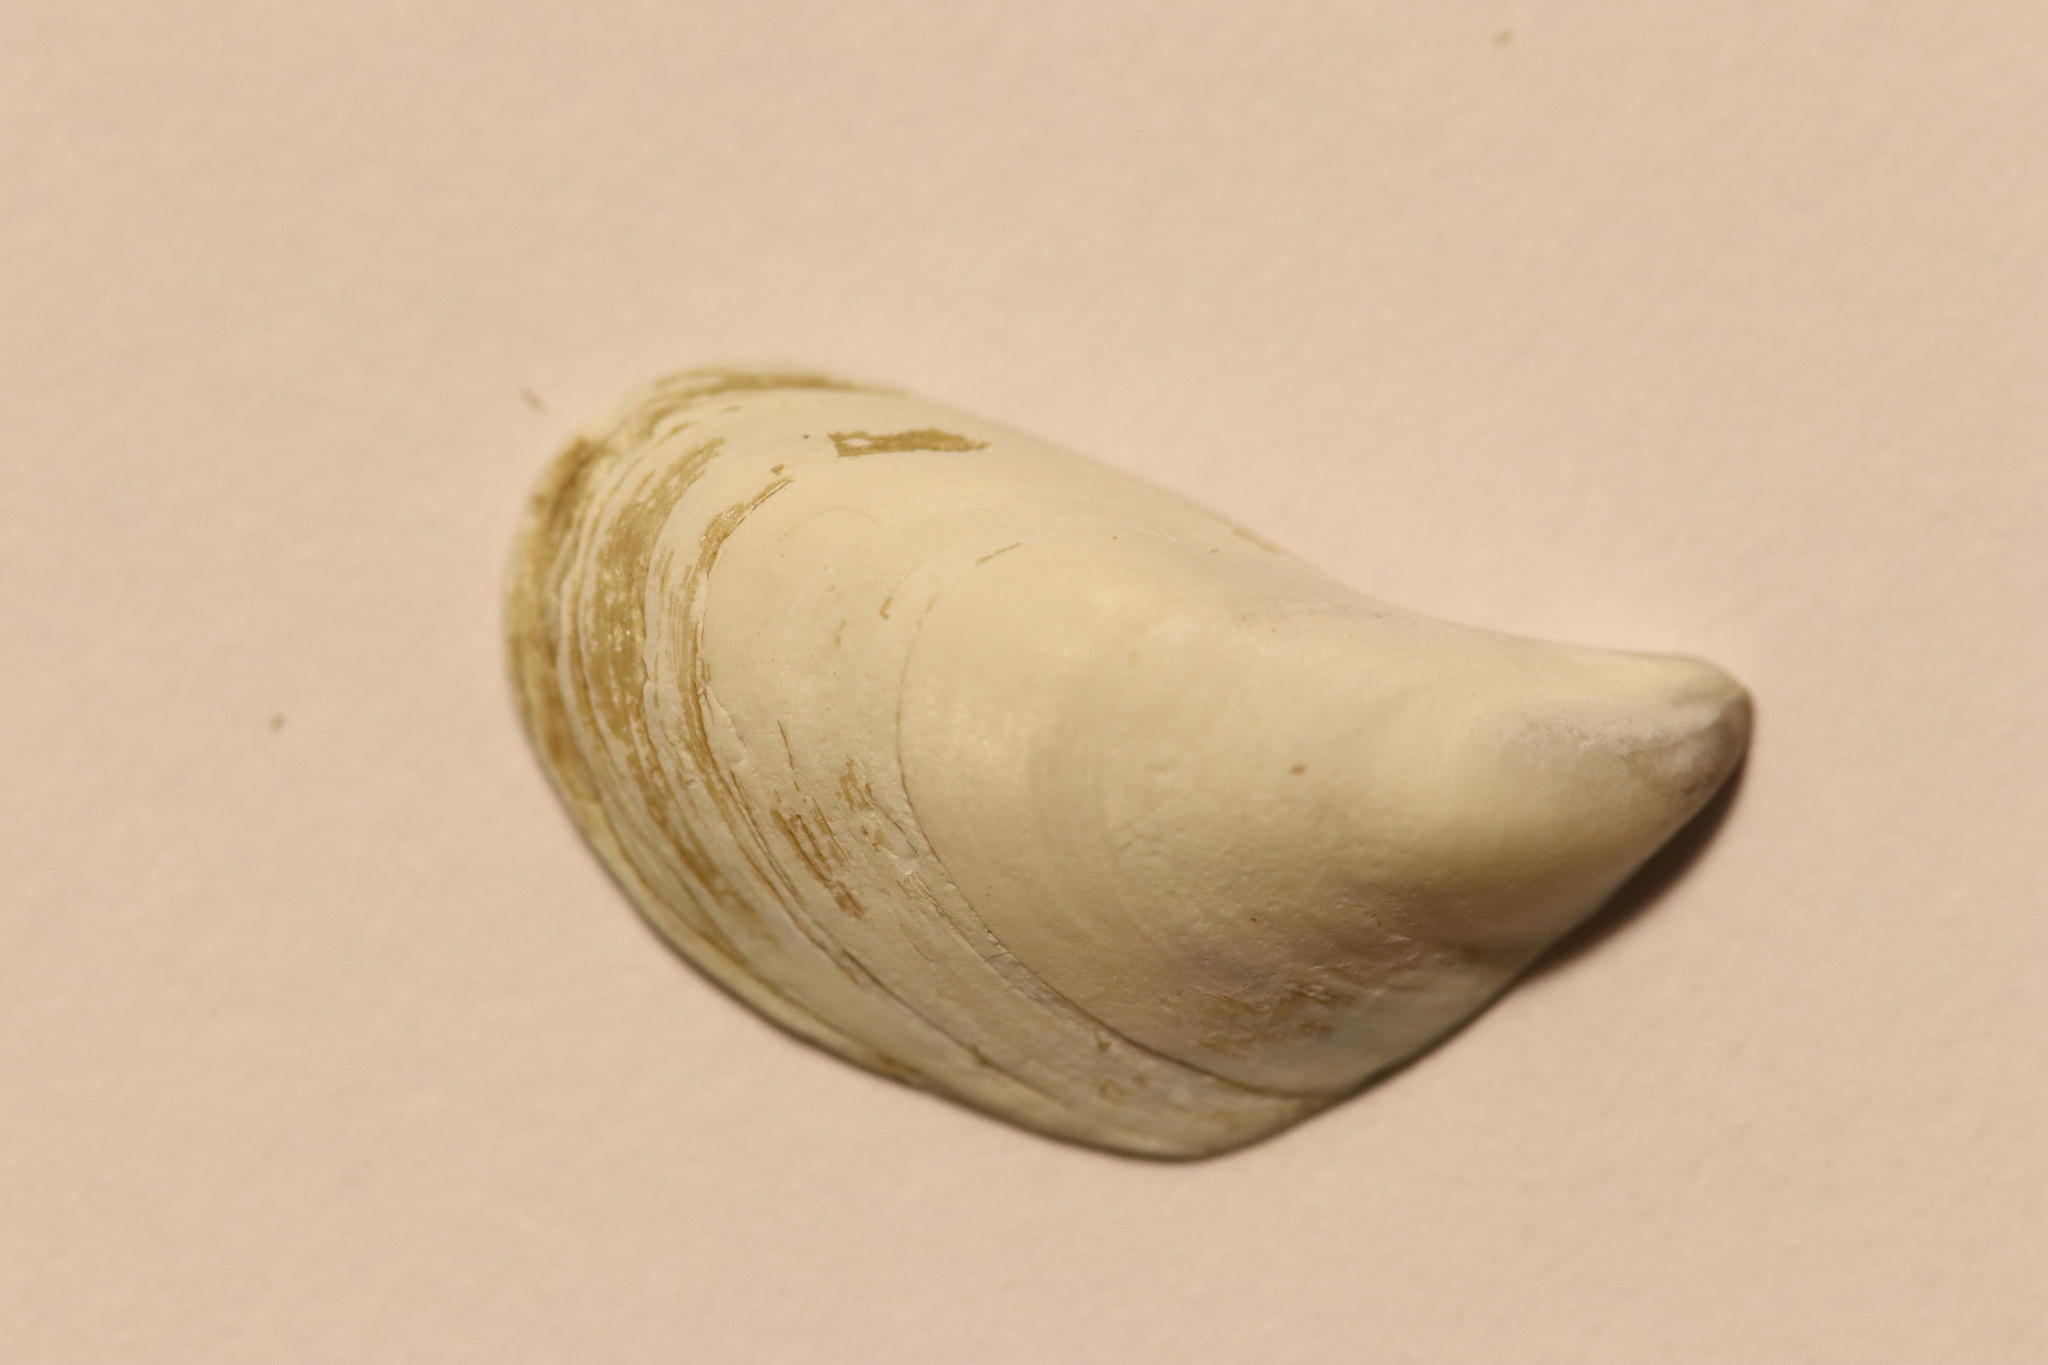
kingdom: Animalia
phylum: Mollusca
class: Bivalvia
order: Myida
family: Dreissenidae
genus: Dreissena
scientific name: Dreissena bugensis
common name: Quagga mussel
